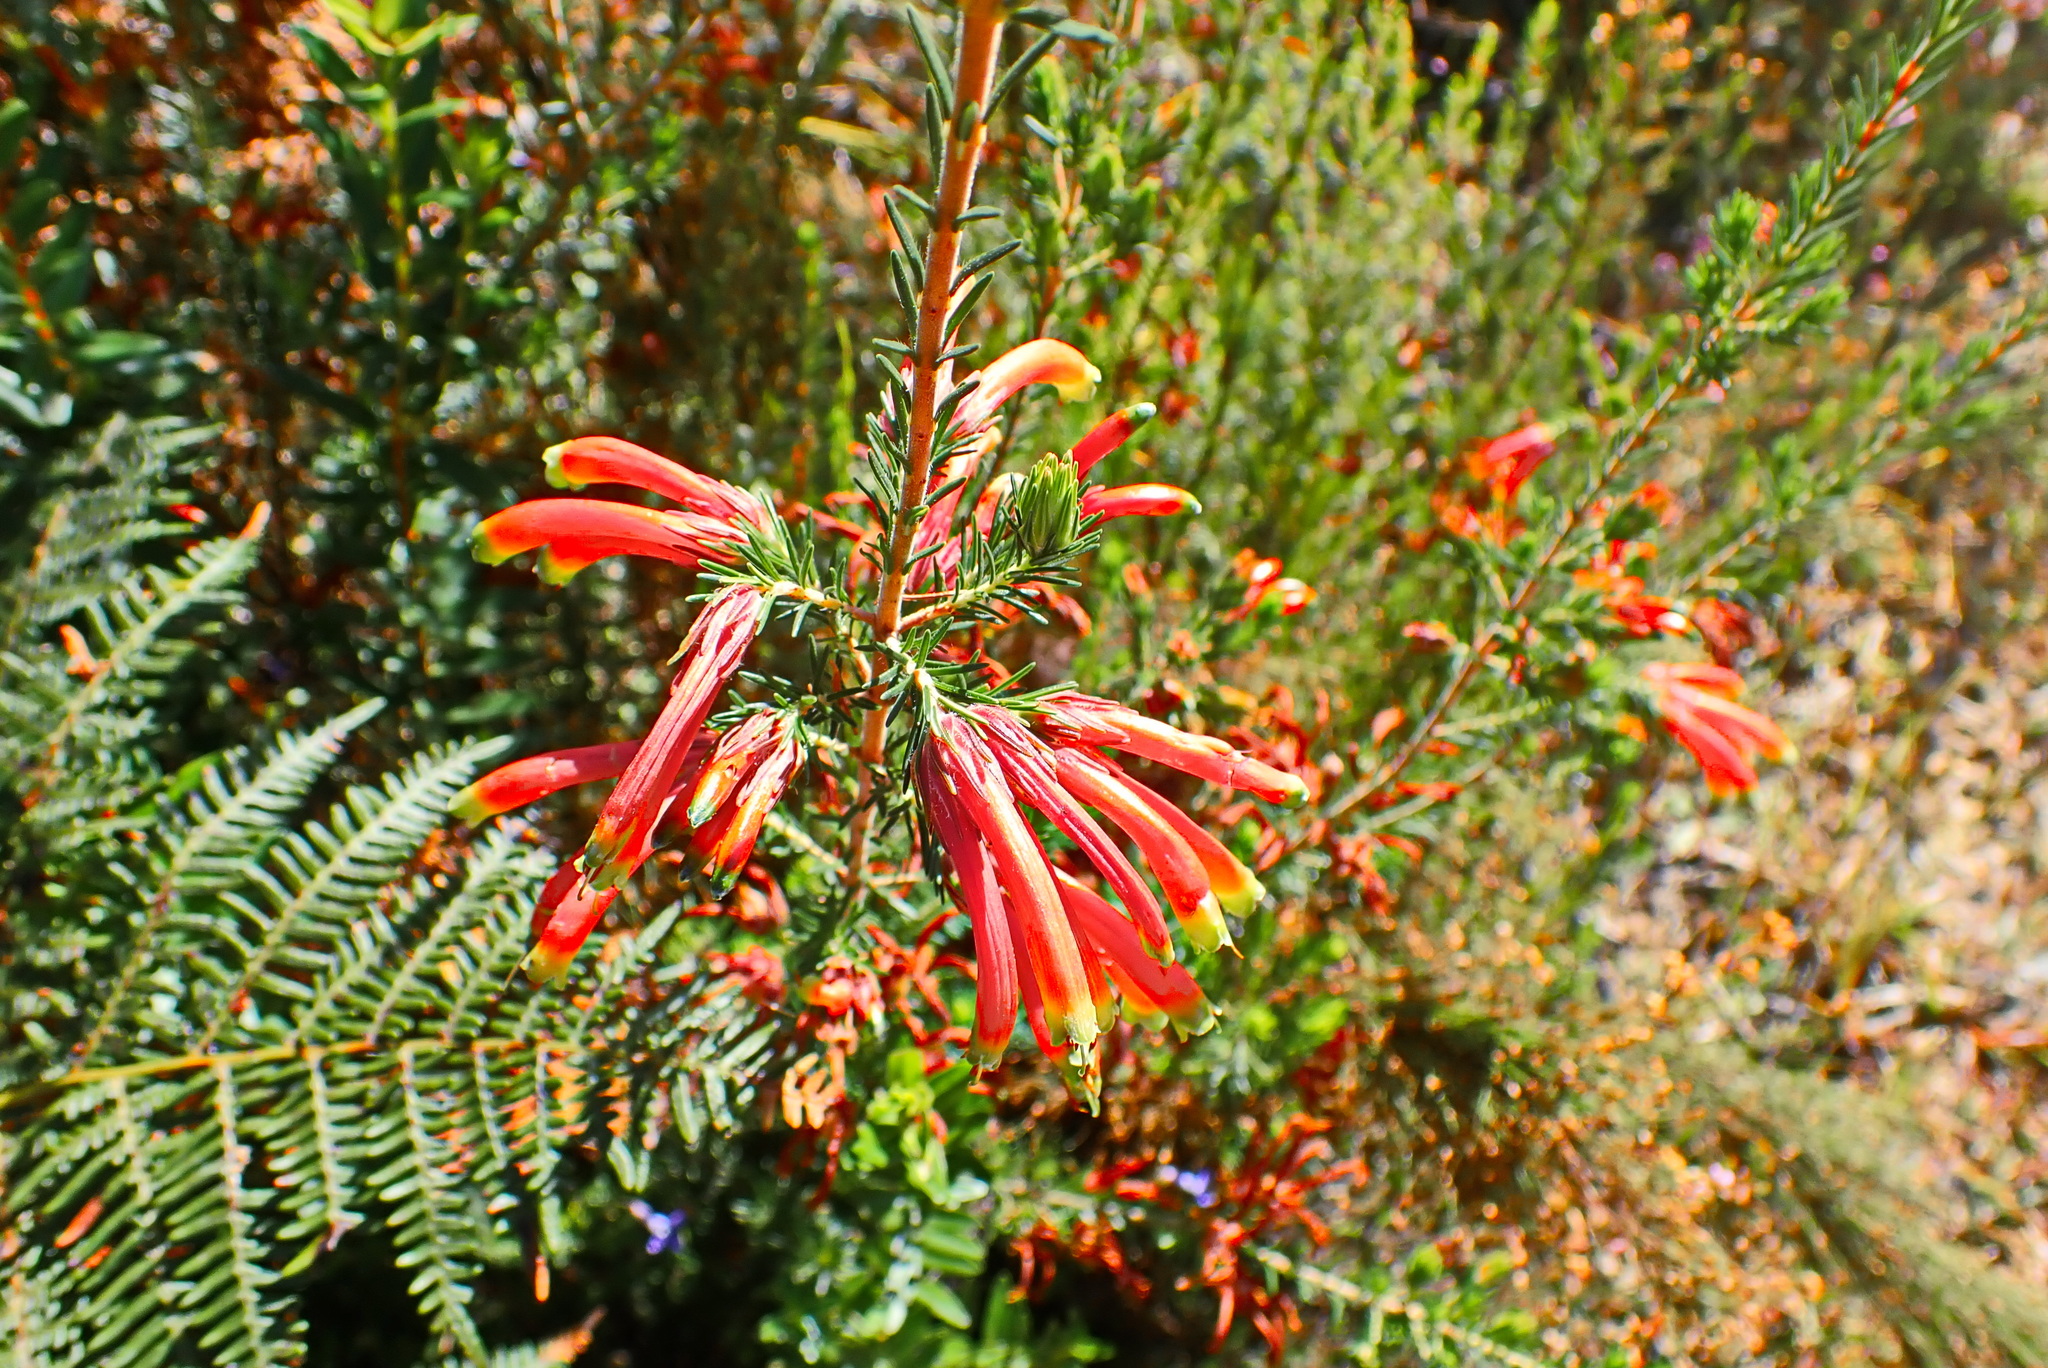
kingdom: Plantae
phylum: Tracheophyta
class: Magnoliopsida
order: Ericales
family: Ericaceae
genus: Erica
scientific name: Erica unicolor
